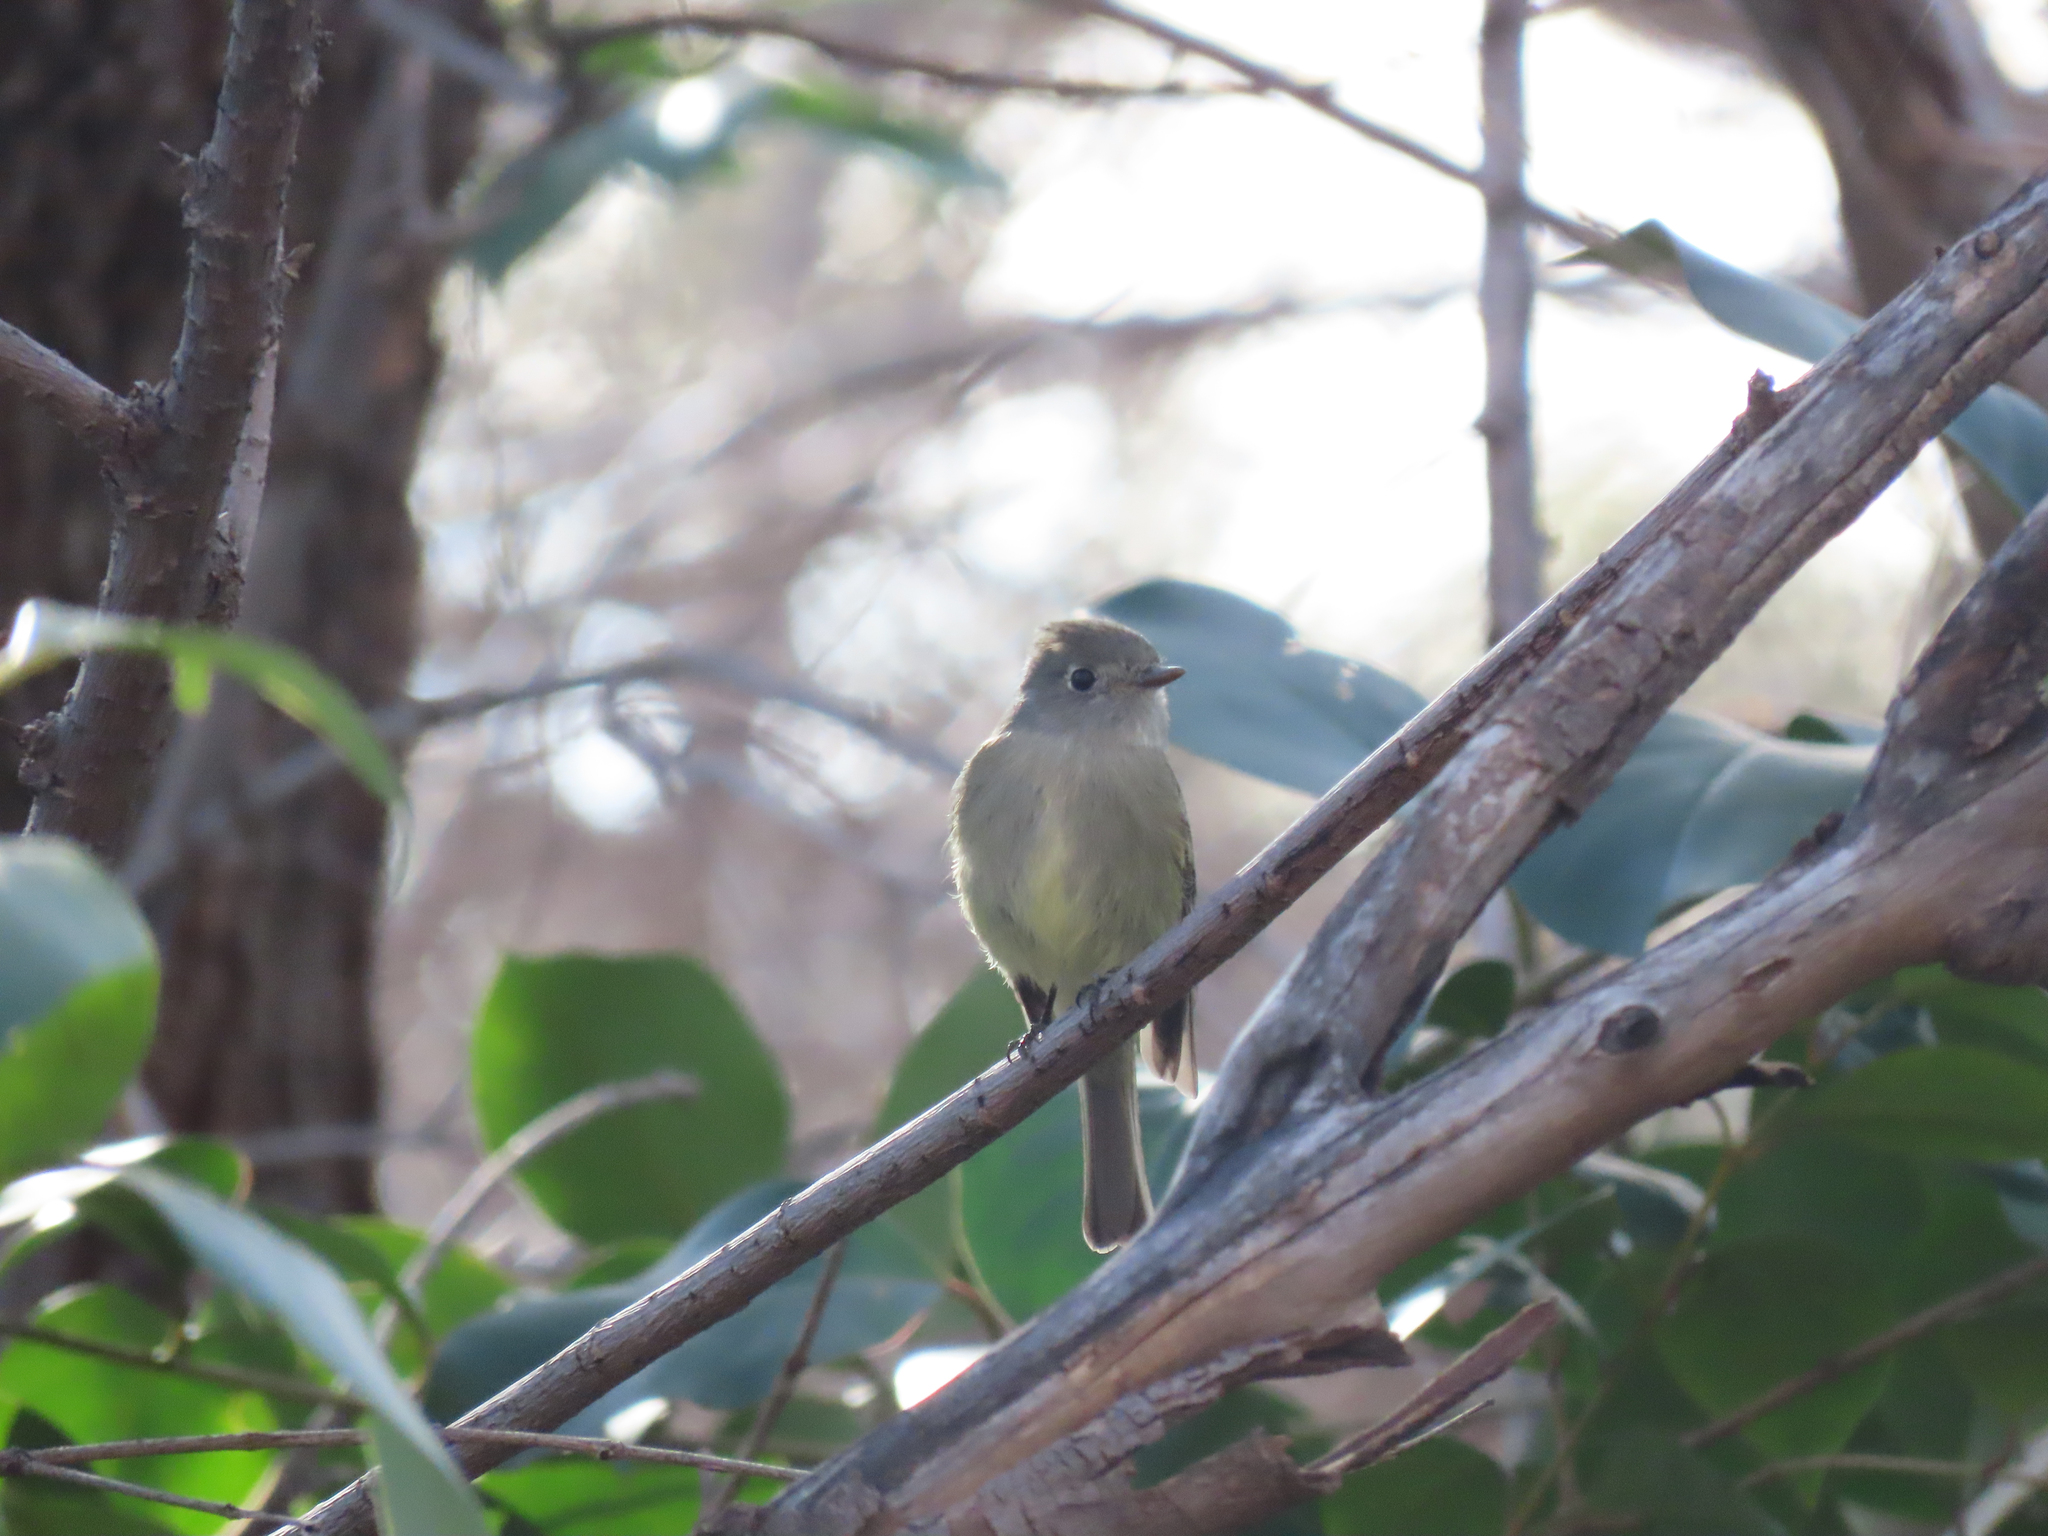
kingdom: Animalia
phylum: Chordata
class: Aves
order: Passeriformes
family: Tyrannidae
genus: Empidonax
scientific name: Empidonax hammondii
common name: Hammond's flycatcher
